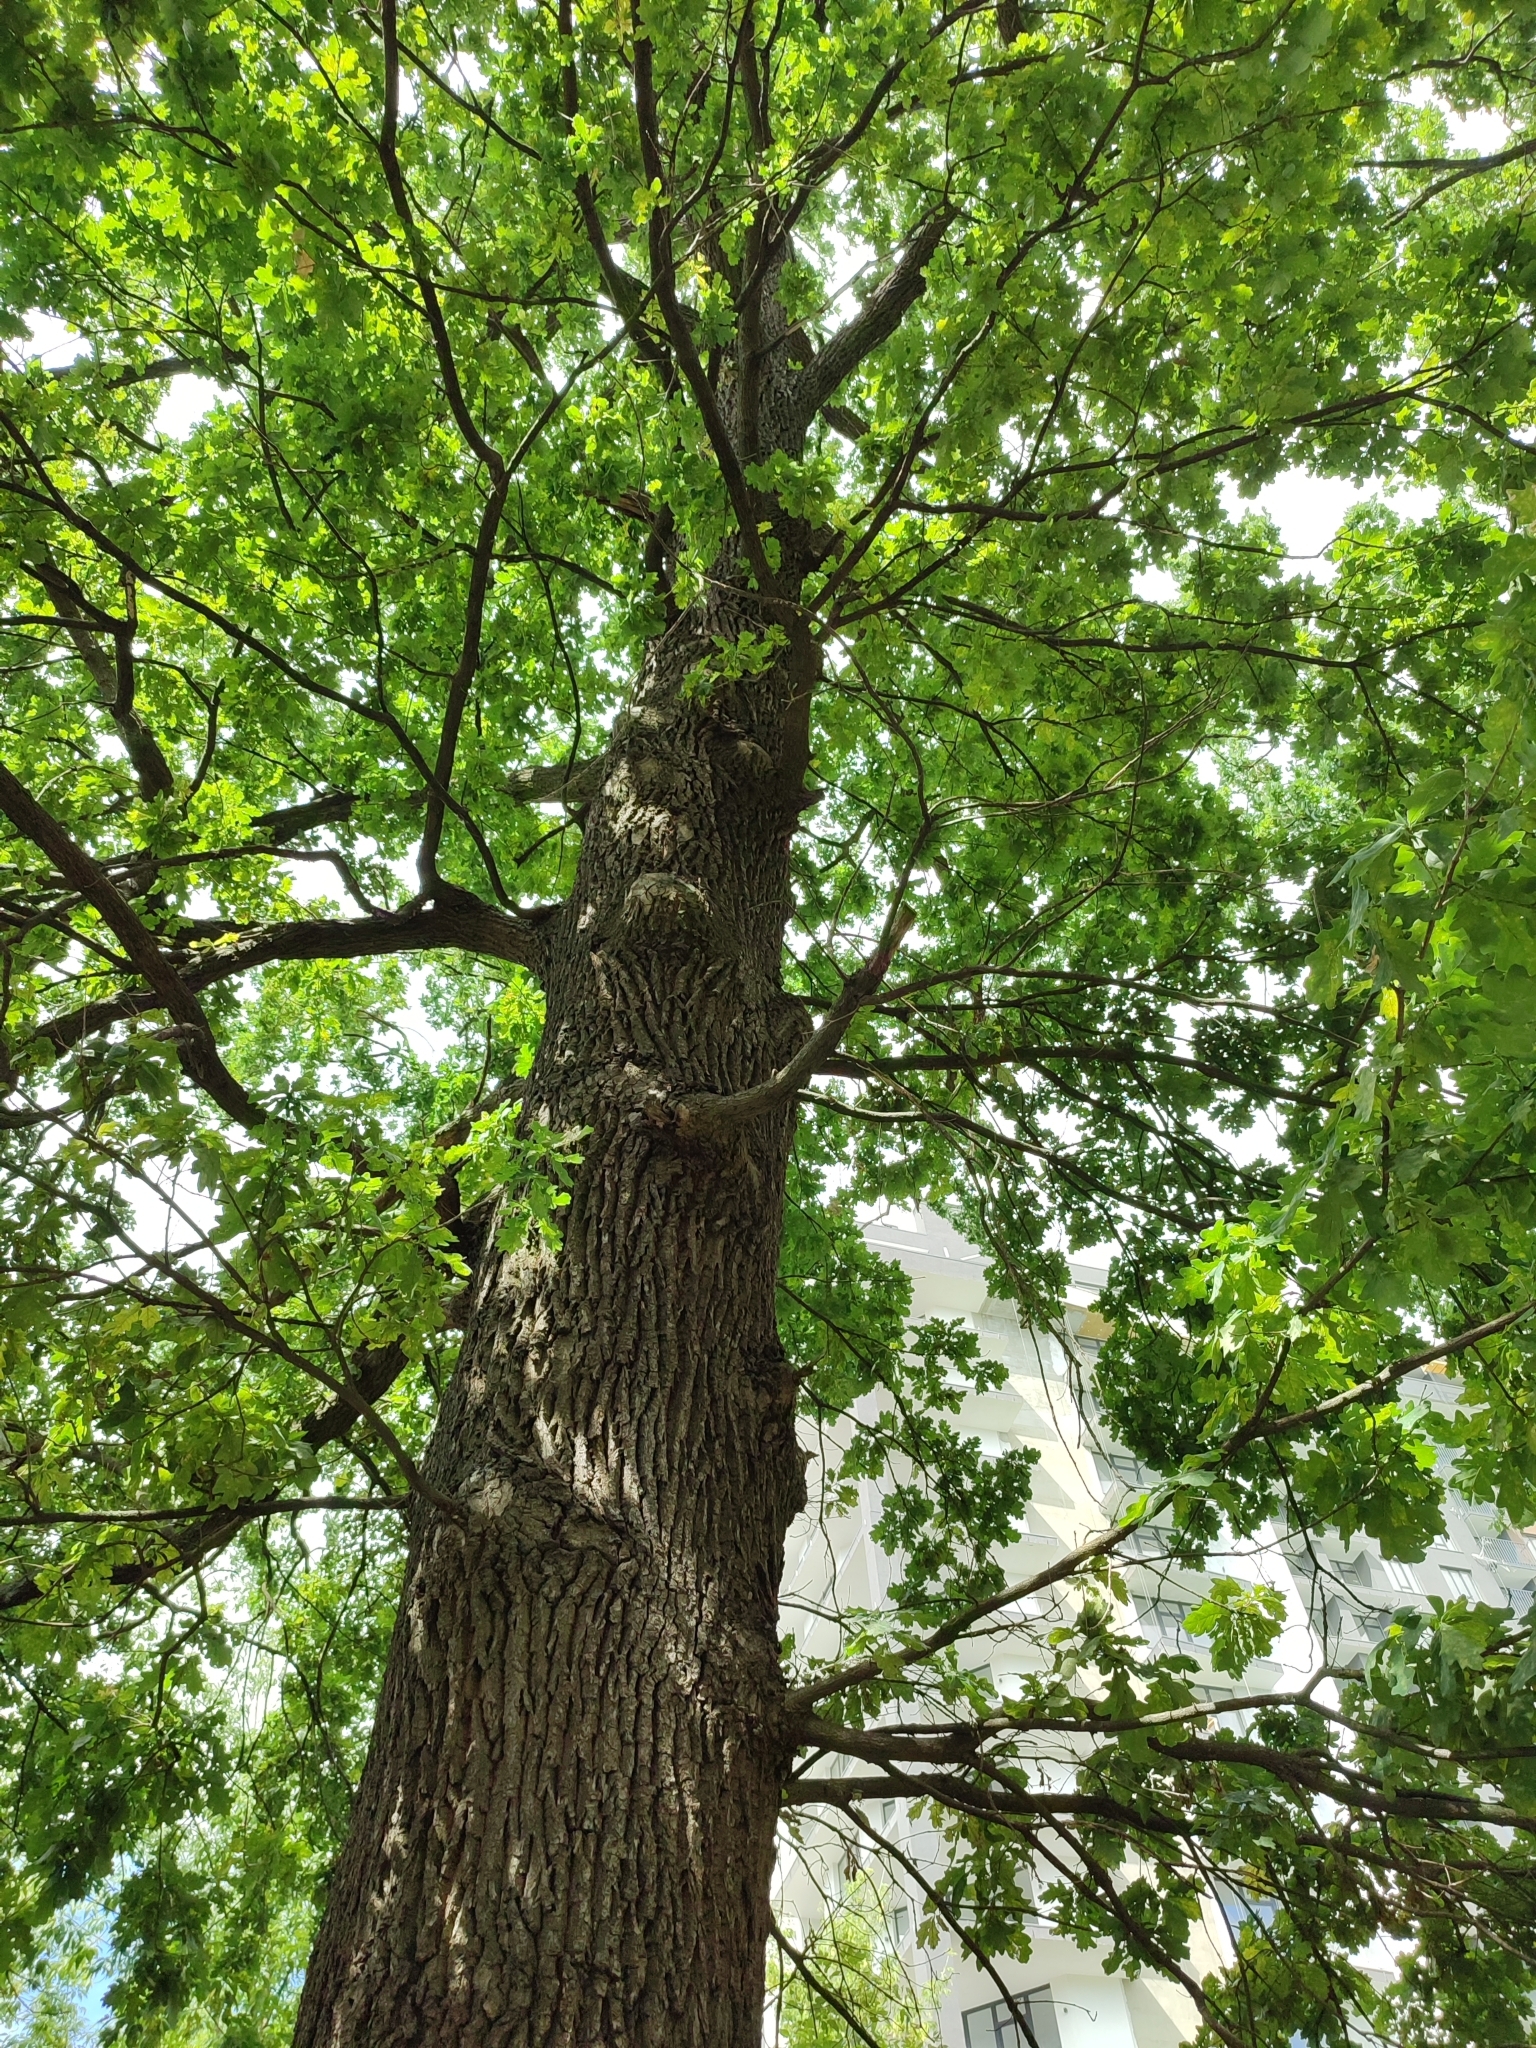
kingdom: Plantae
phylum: Tracheophyta
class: Magnoliopsida
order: Fagales
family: Fagaceae
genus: Quercus
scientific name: Quercus robur
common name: Pedunculate oak
